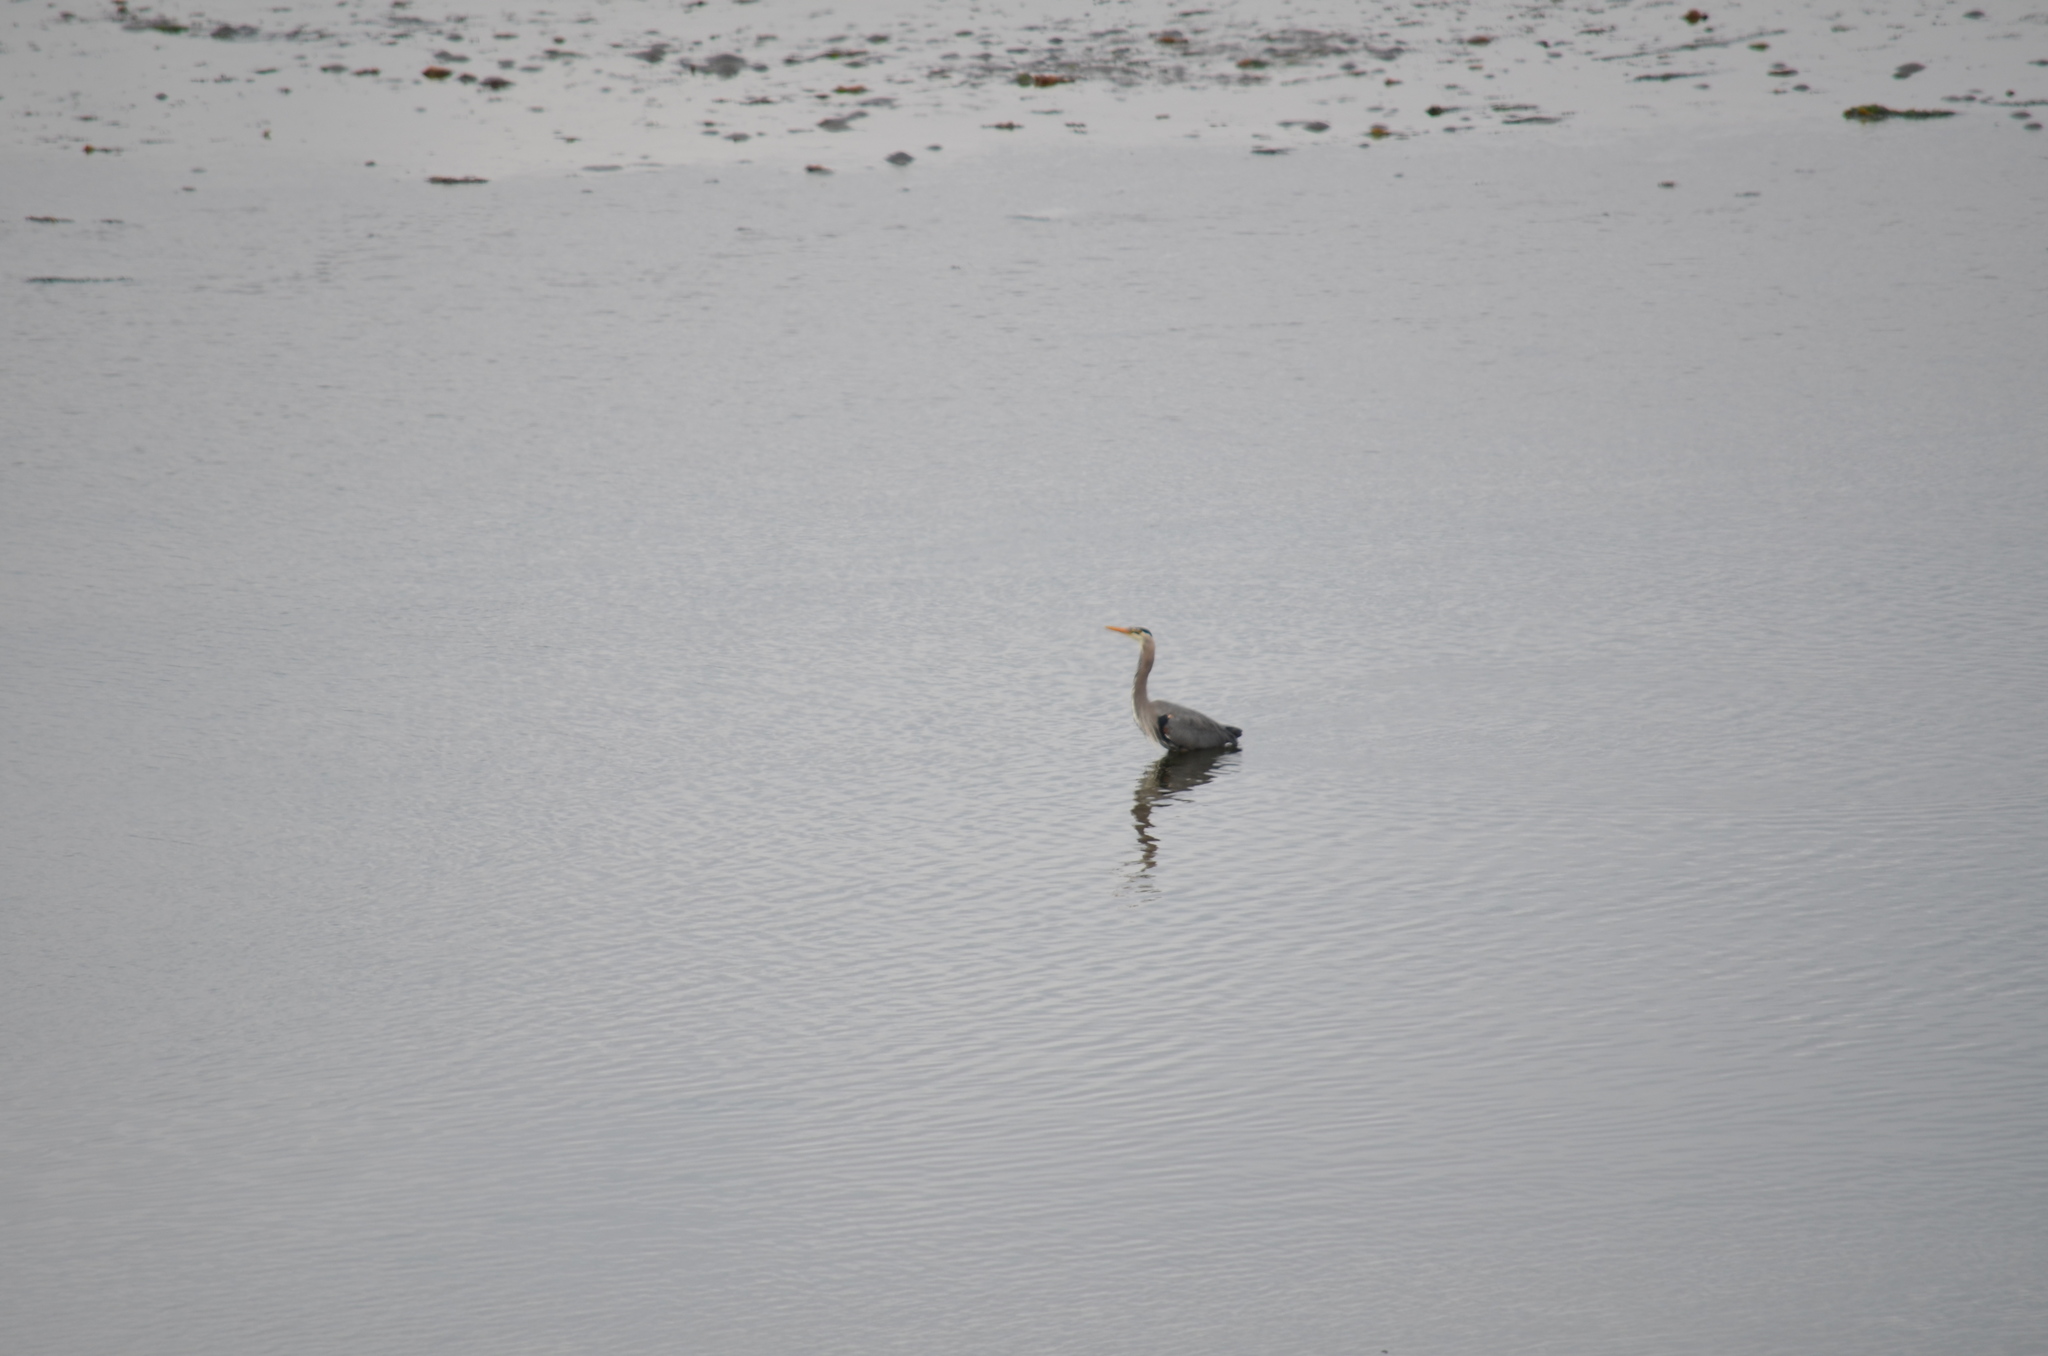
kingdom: Animalia
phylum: Chordata
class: Aves
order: Pelecaniformes
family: Ardeidae
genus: Ardea
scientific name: Ardea herodias
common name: Great blue heron
